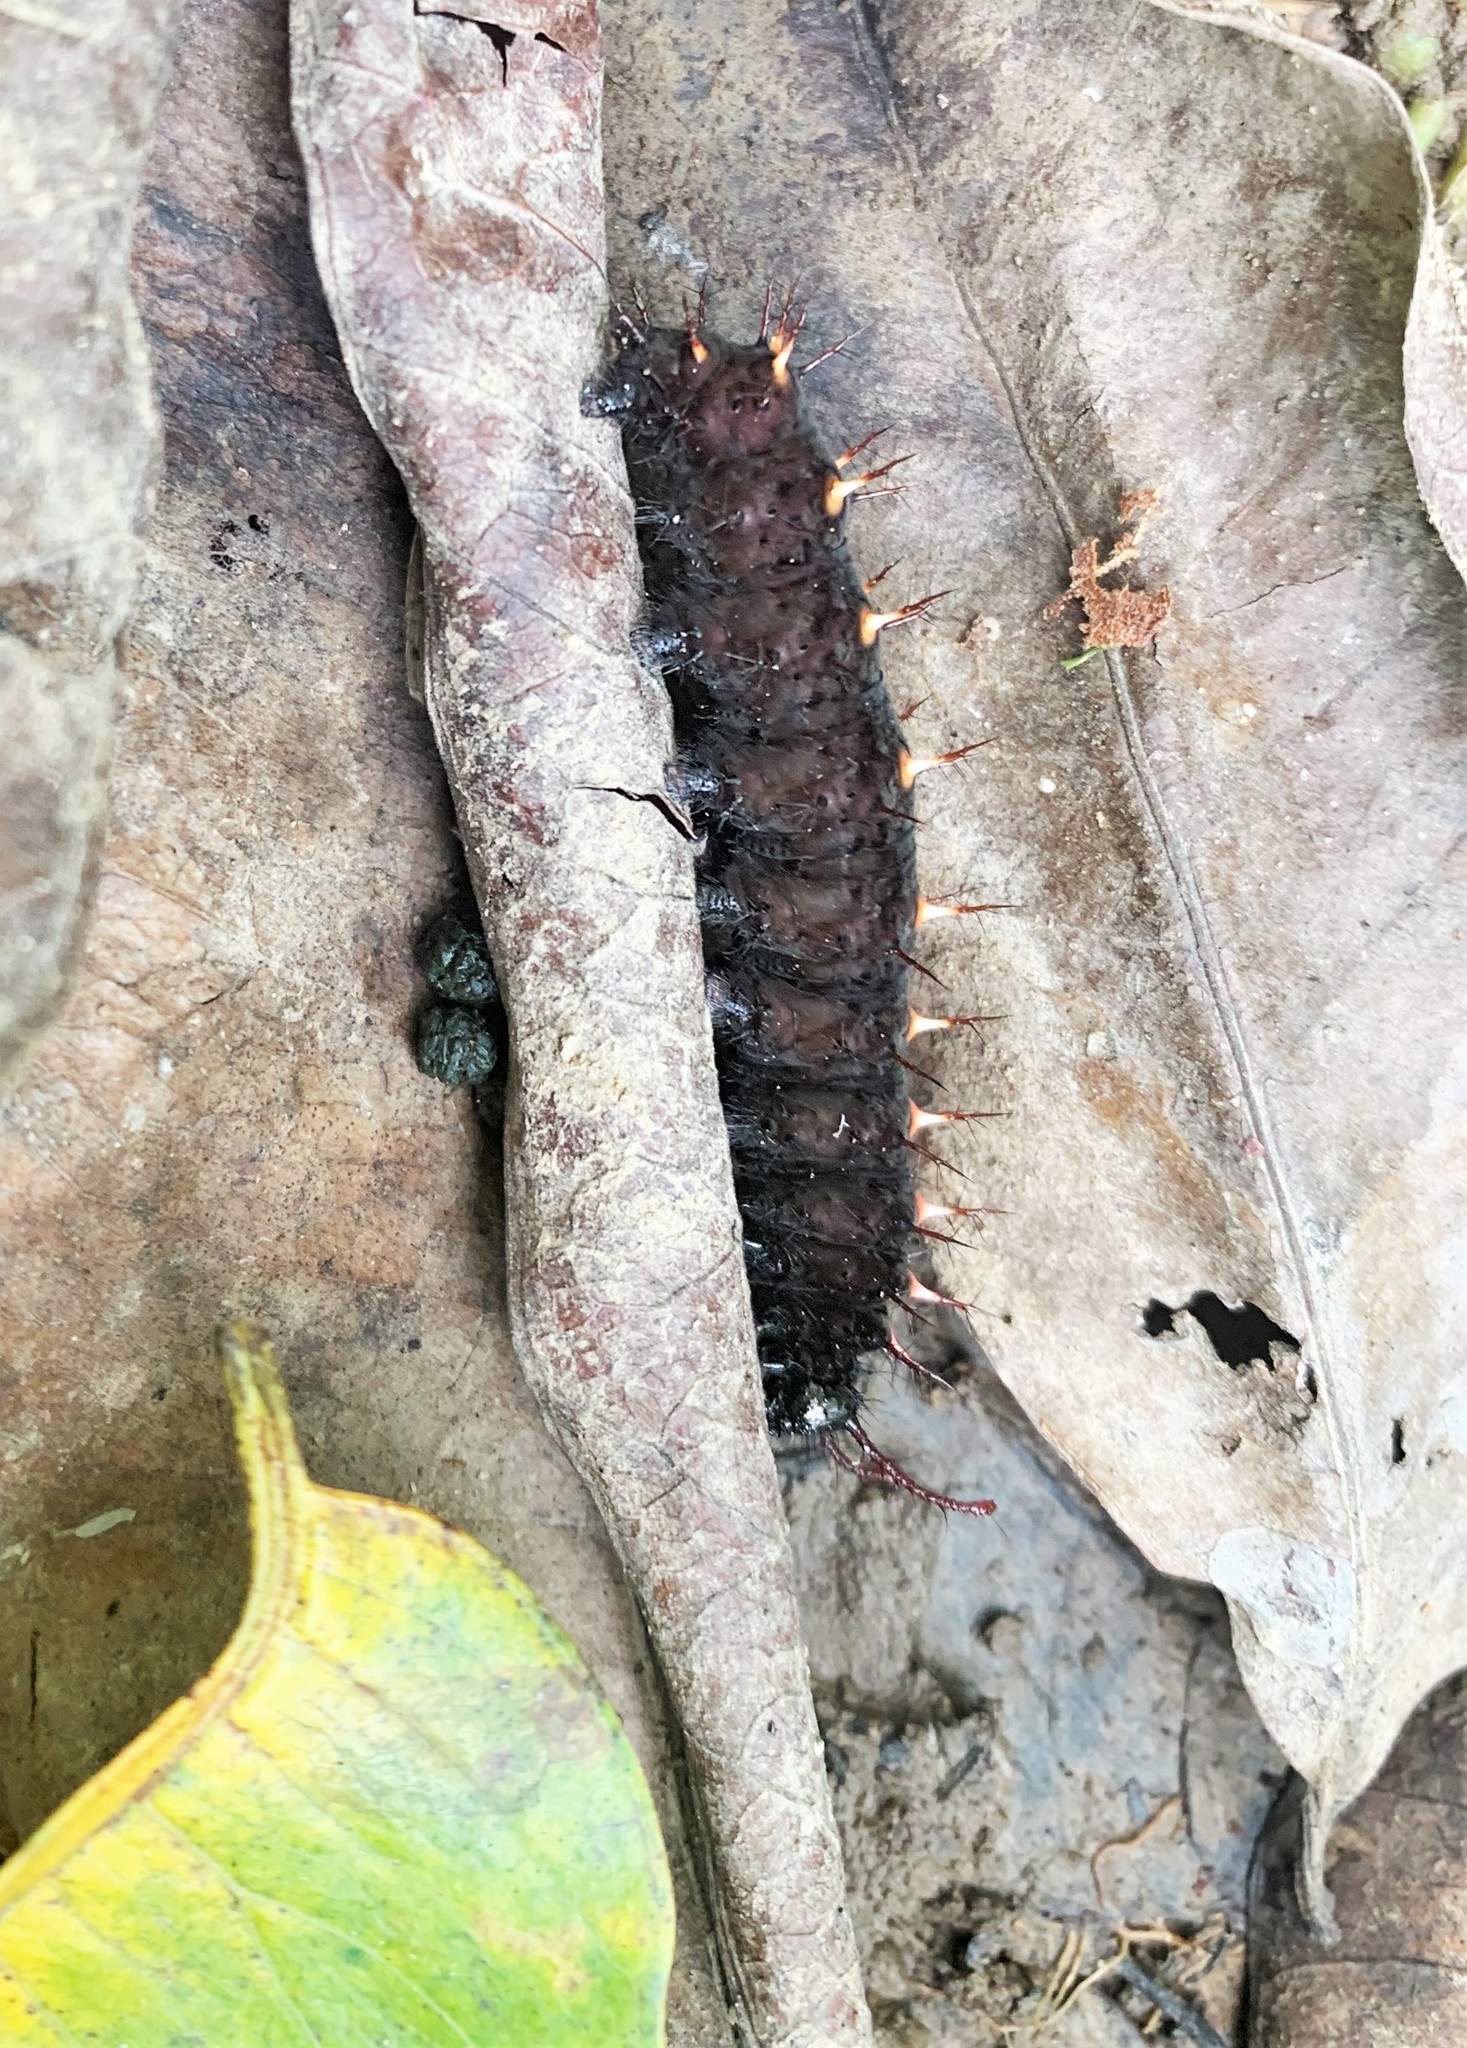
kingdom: Animalia
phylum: Arthropoda
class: Insecta
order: Lepidoptera
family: Nymphalidae
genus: Siproeta
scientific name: Siproeta stelenes
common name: Malachite
